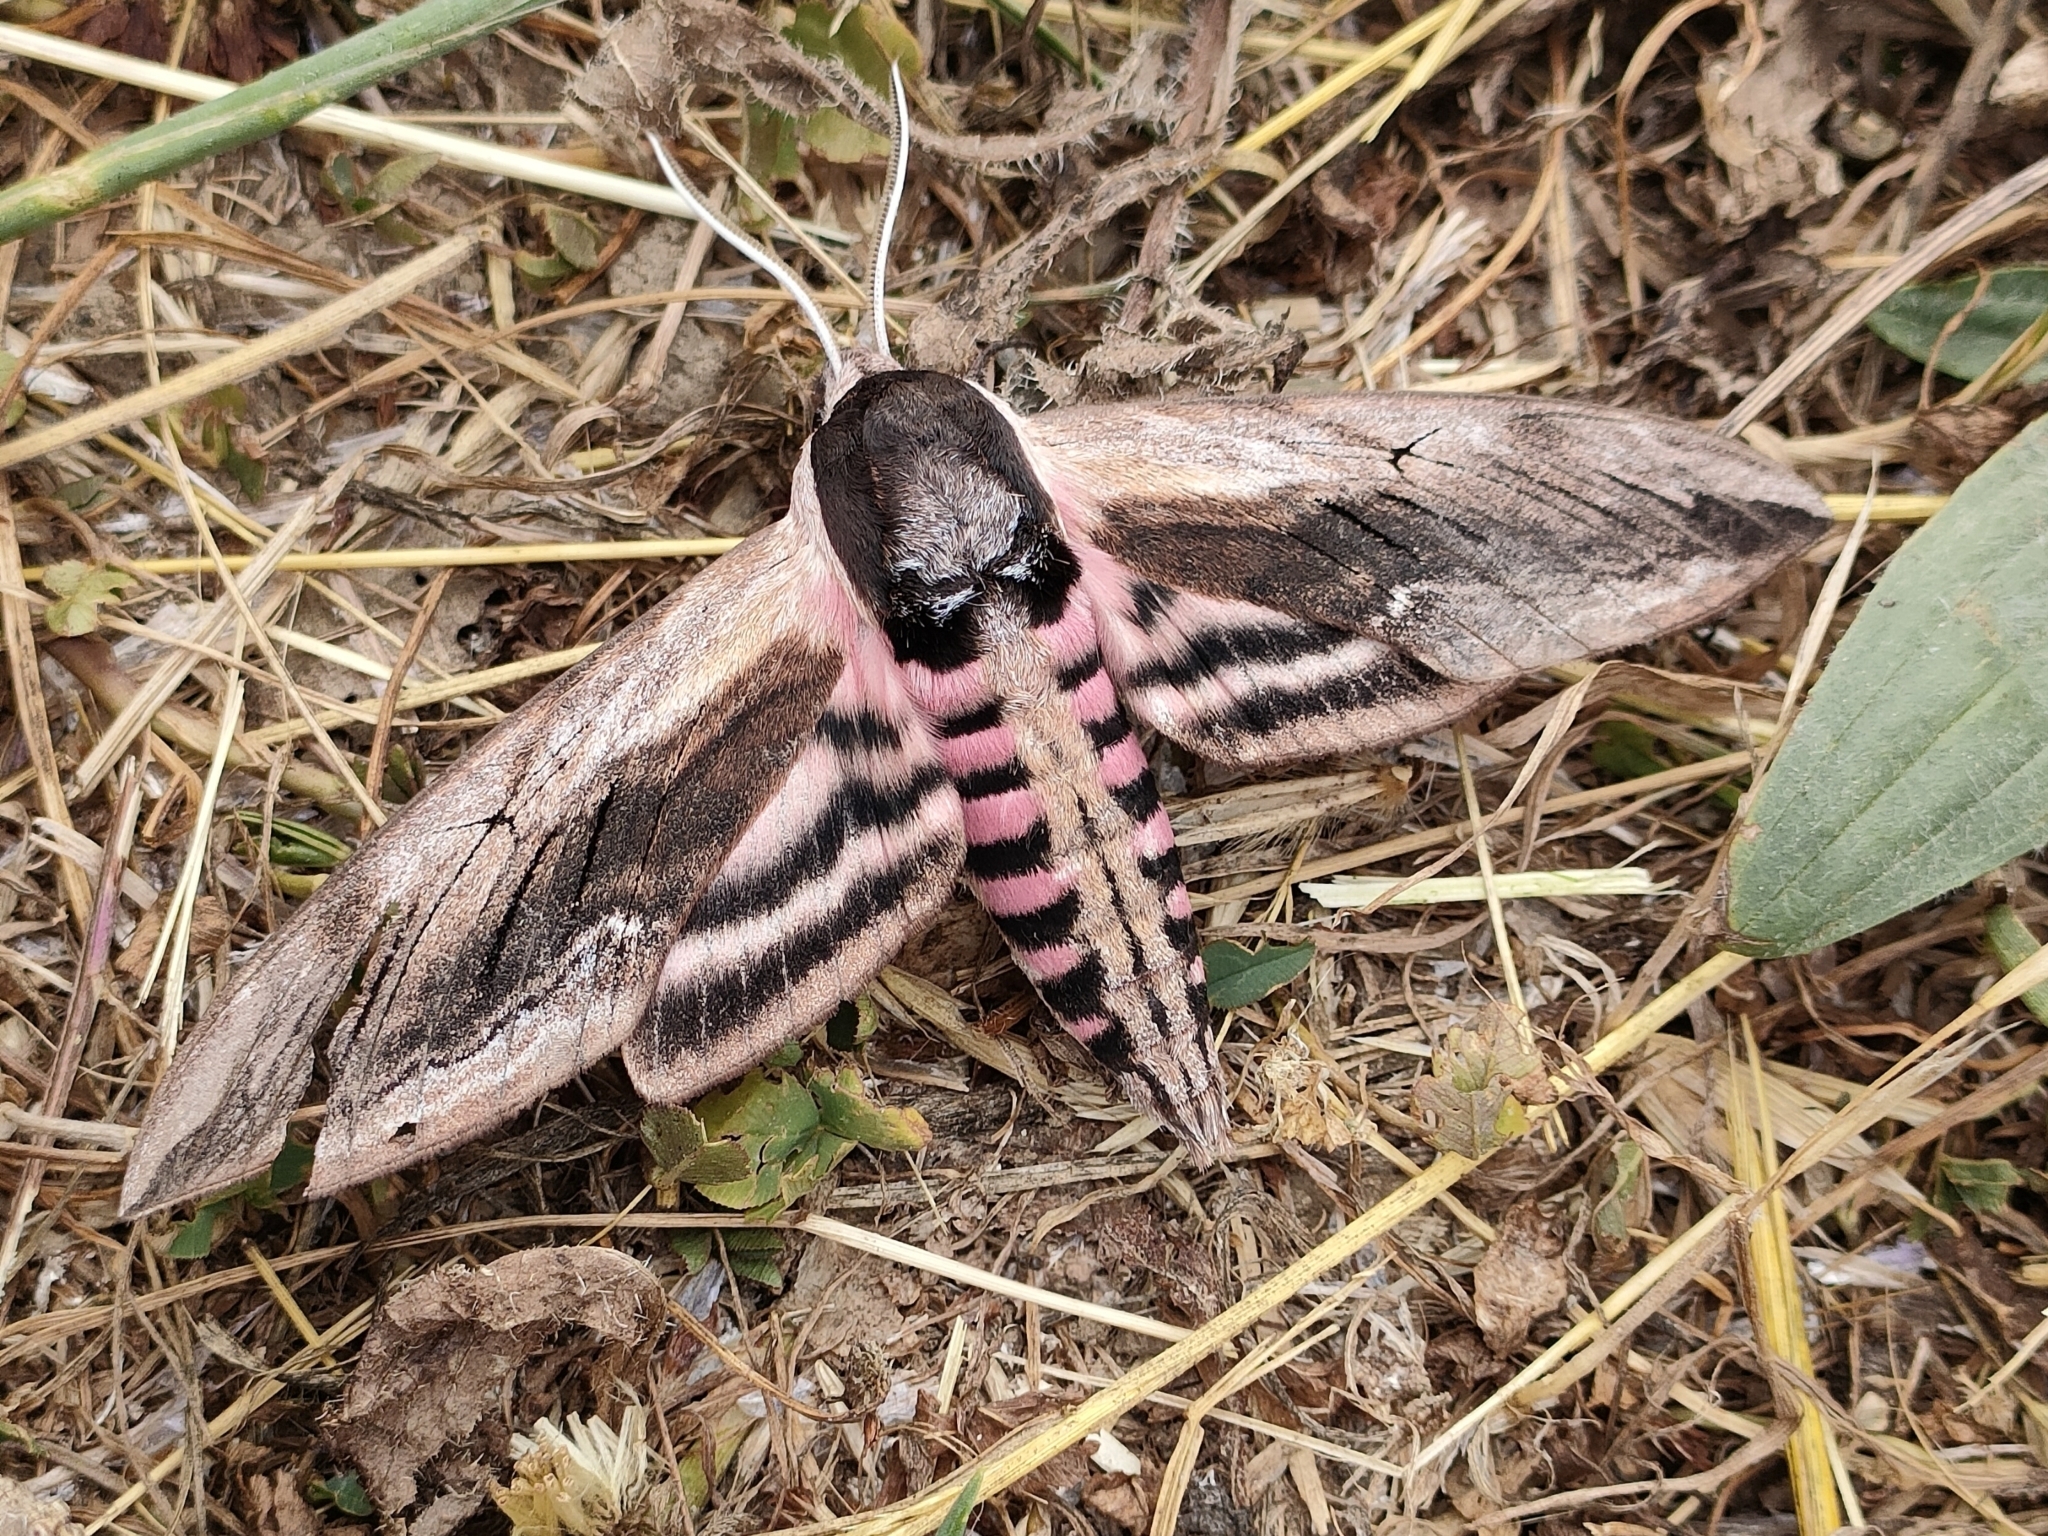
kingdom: Animalia
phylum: Arthropoda
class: Insecta
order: Lepidoptera
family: Sphingidae
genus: Sphinx
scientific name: Sphinx ligustri
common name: Privet hawk-moth
